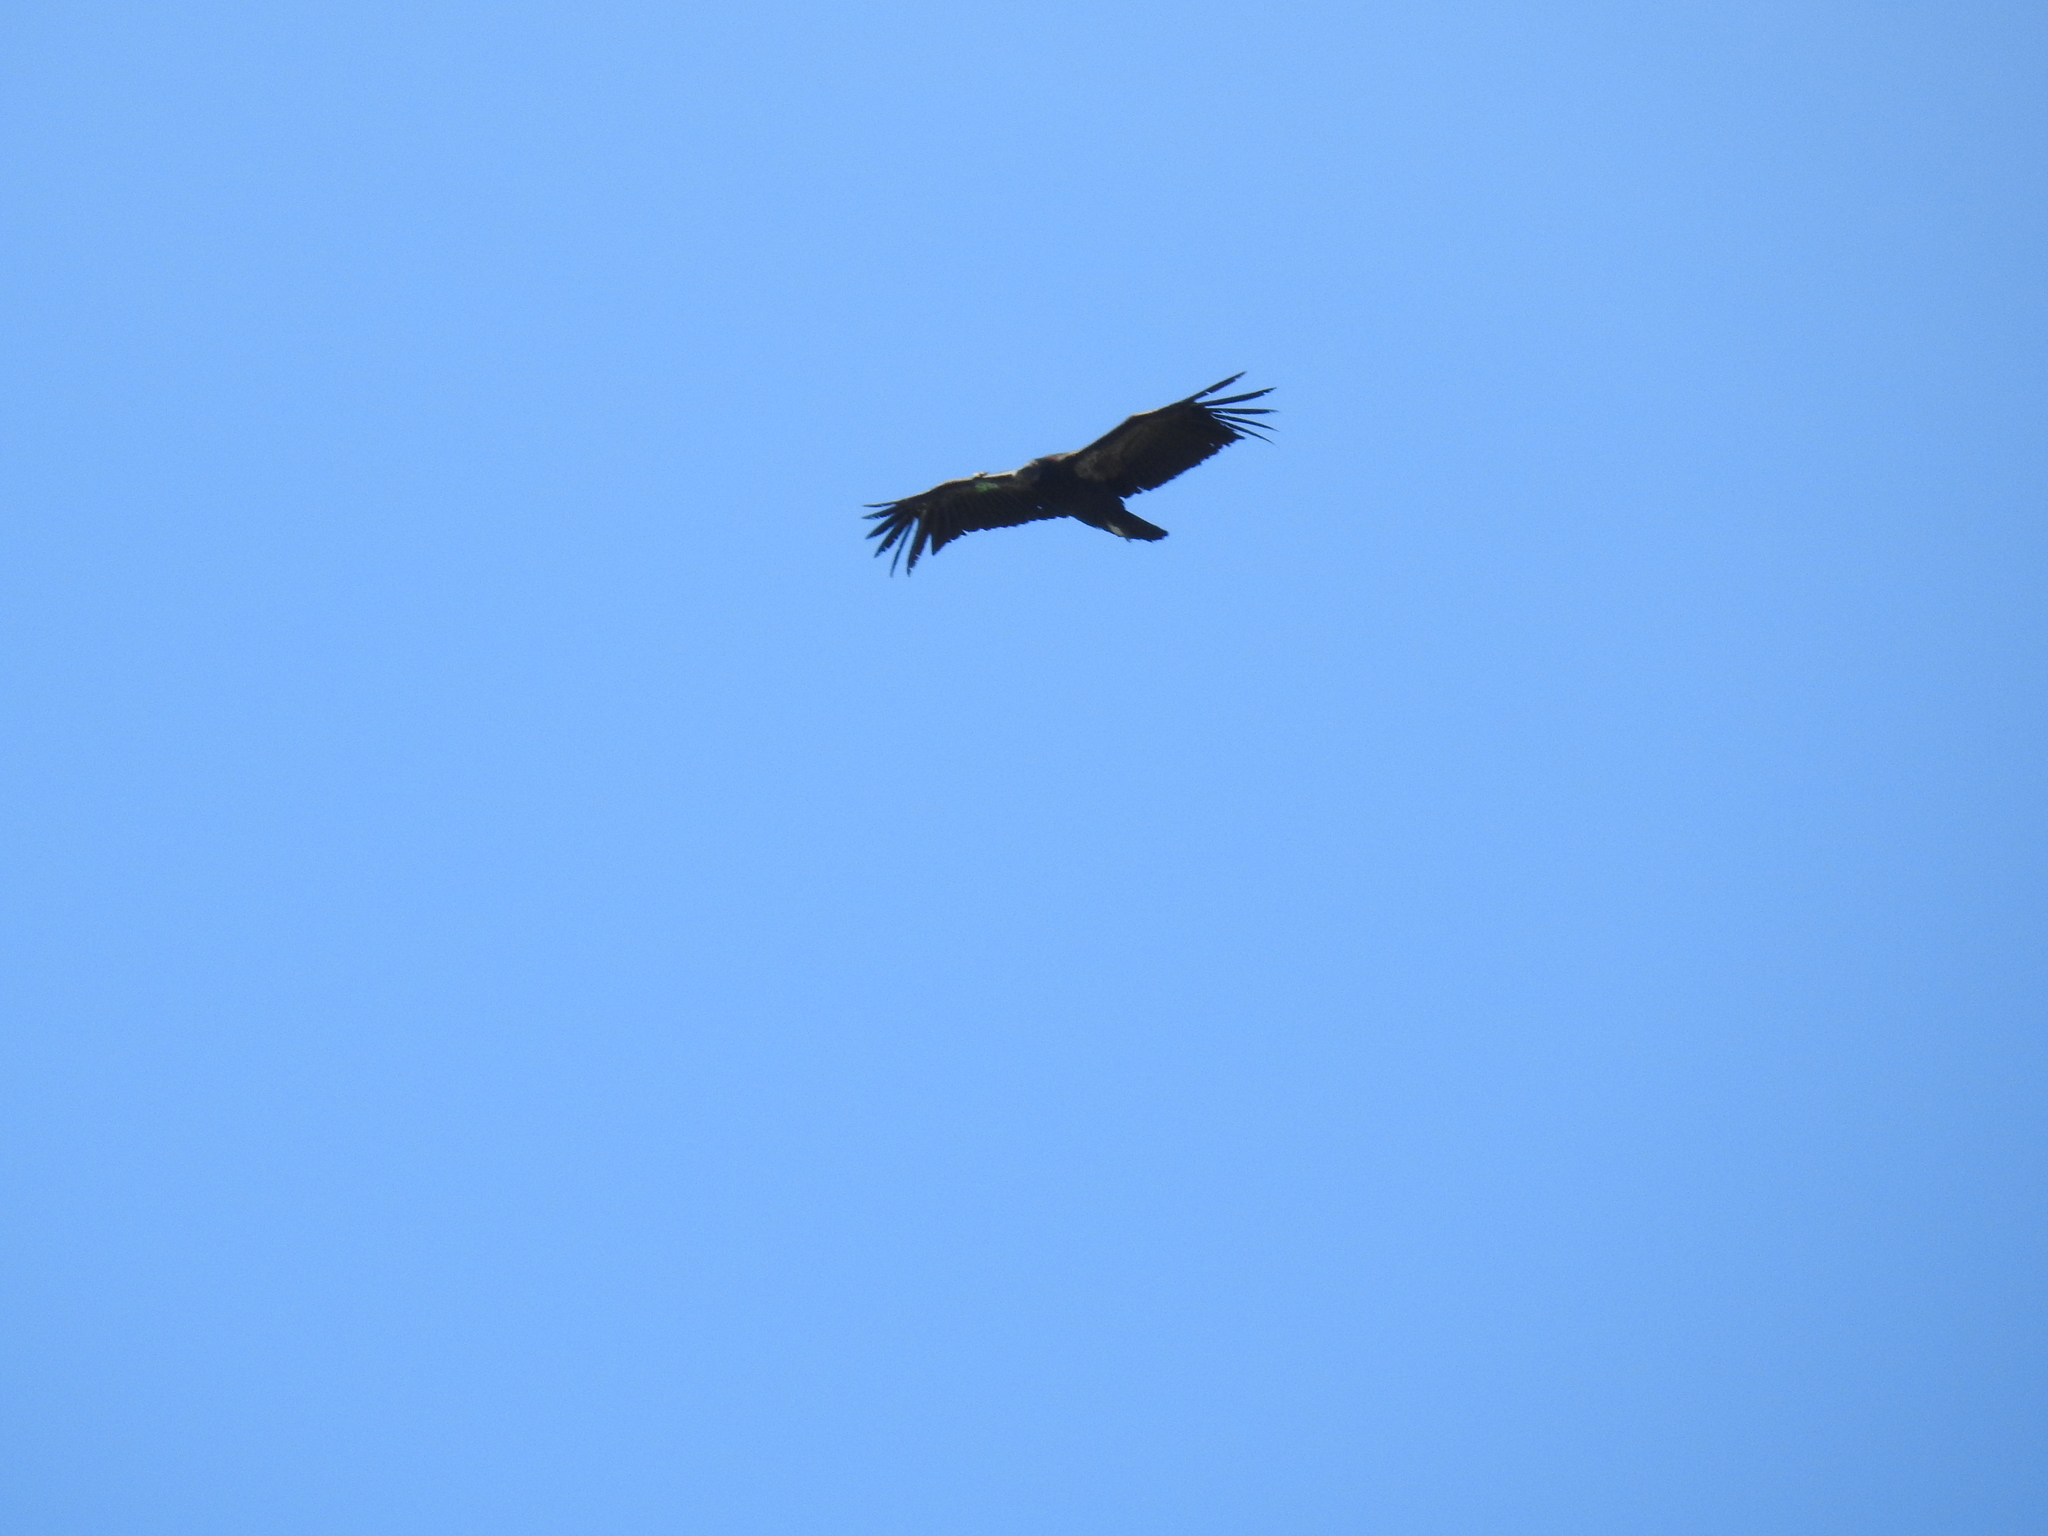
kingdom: Animalia
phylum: Chordata
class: Aves
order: Accipitriformes
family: Cathartidae
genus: Gymnogyps
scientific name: Gymnogyps californianus
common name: California condor
